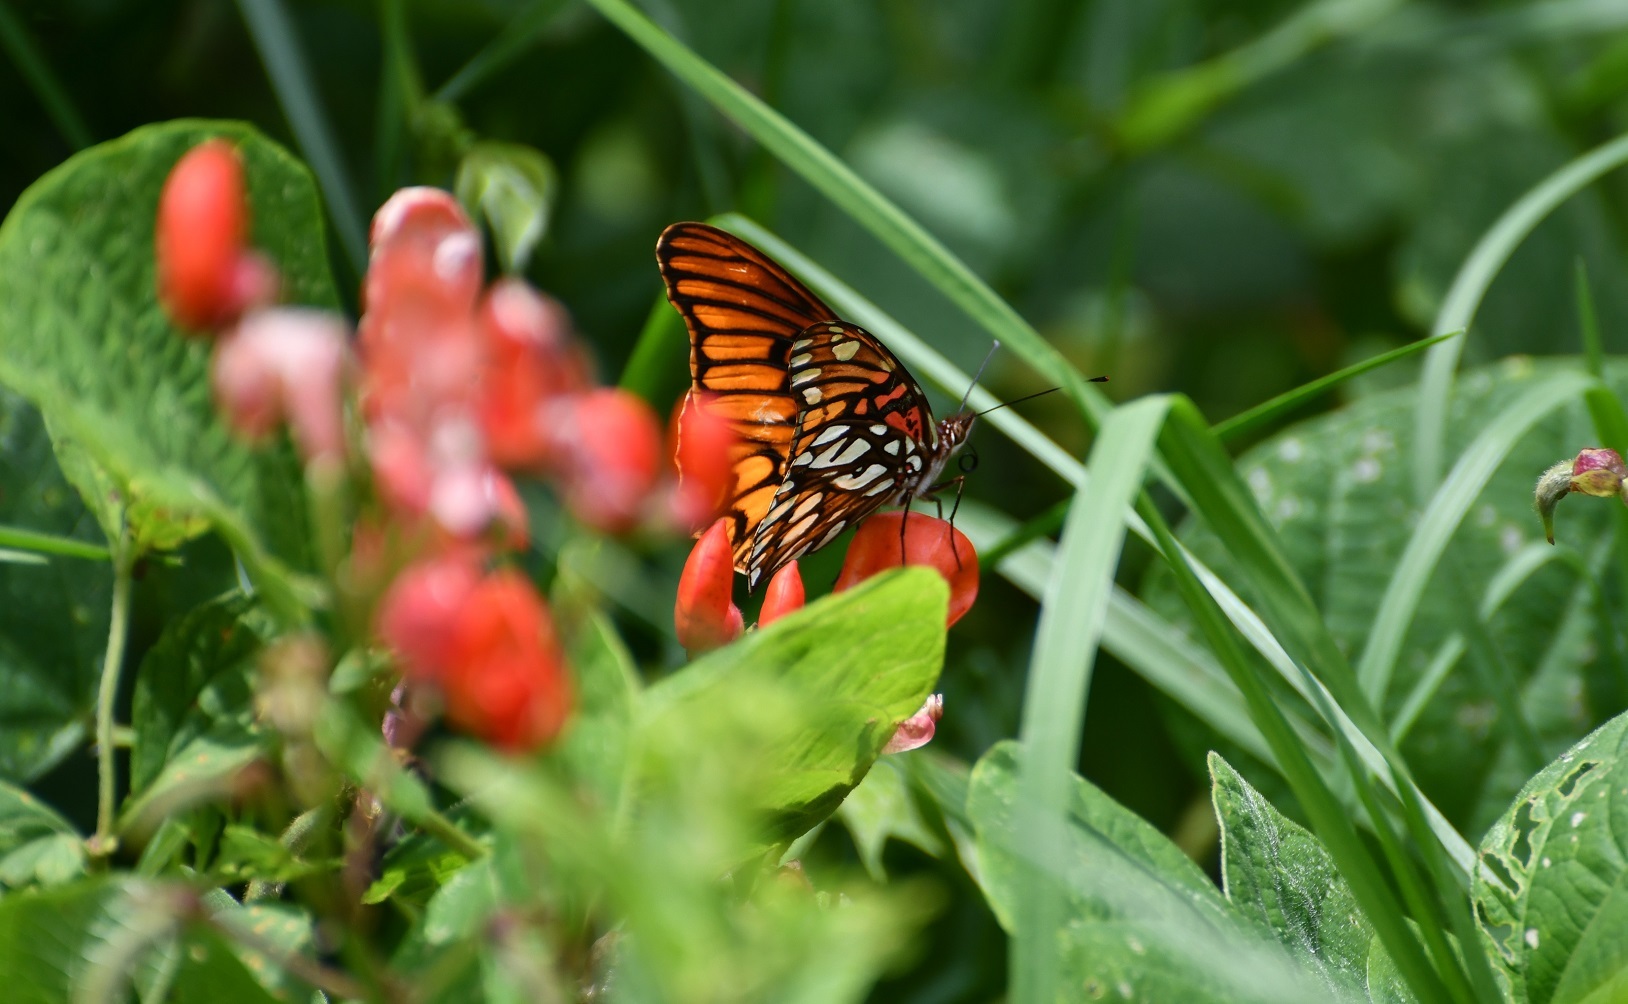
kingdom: Animalia
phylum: Arthropoda
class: Insecta
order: Lepidoptera
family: Nymphalidae
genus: Dione
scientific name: Dione moneta
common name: Mexican silverspot
